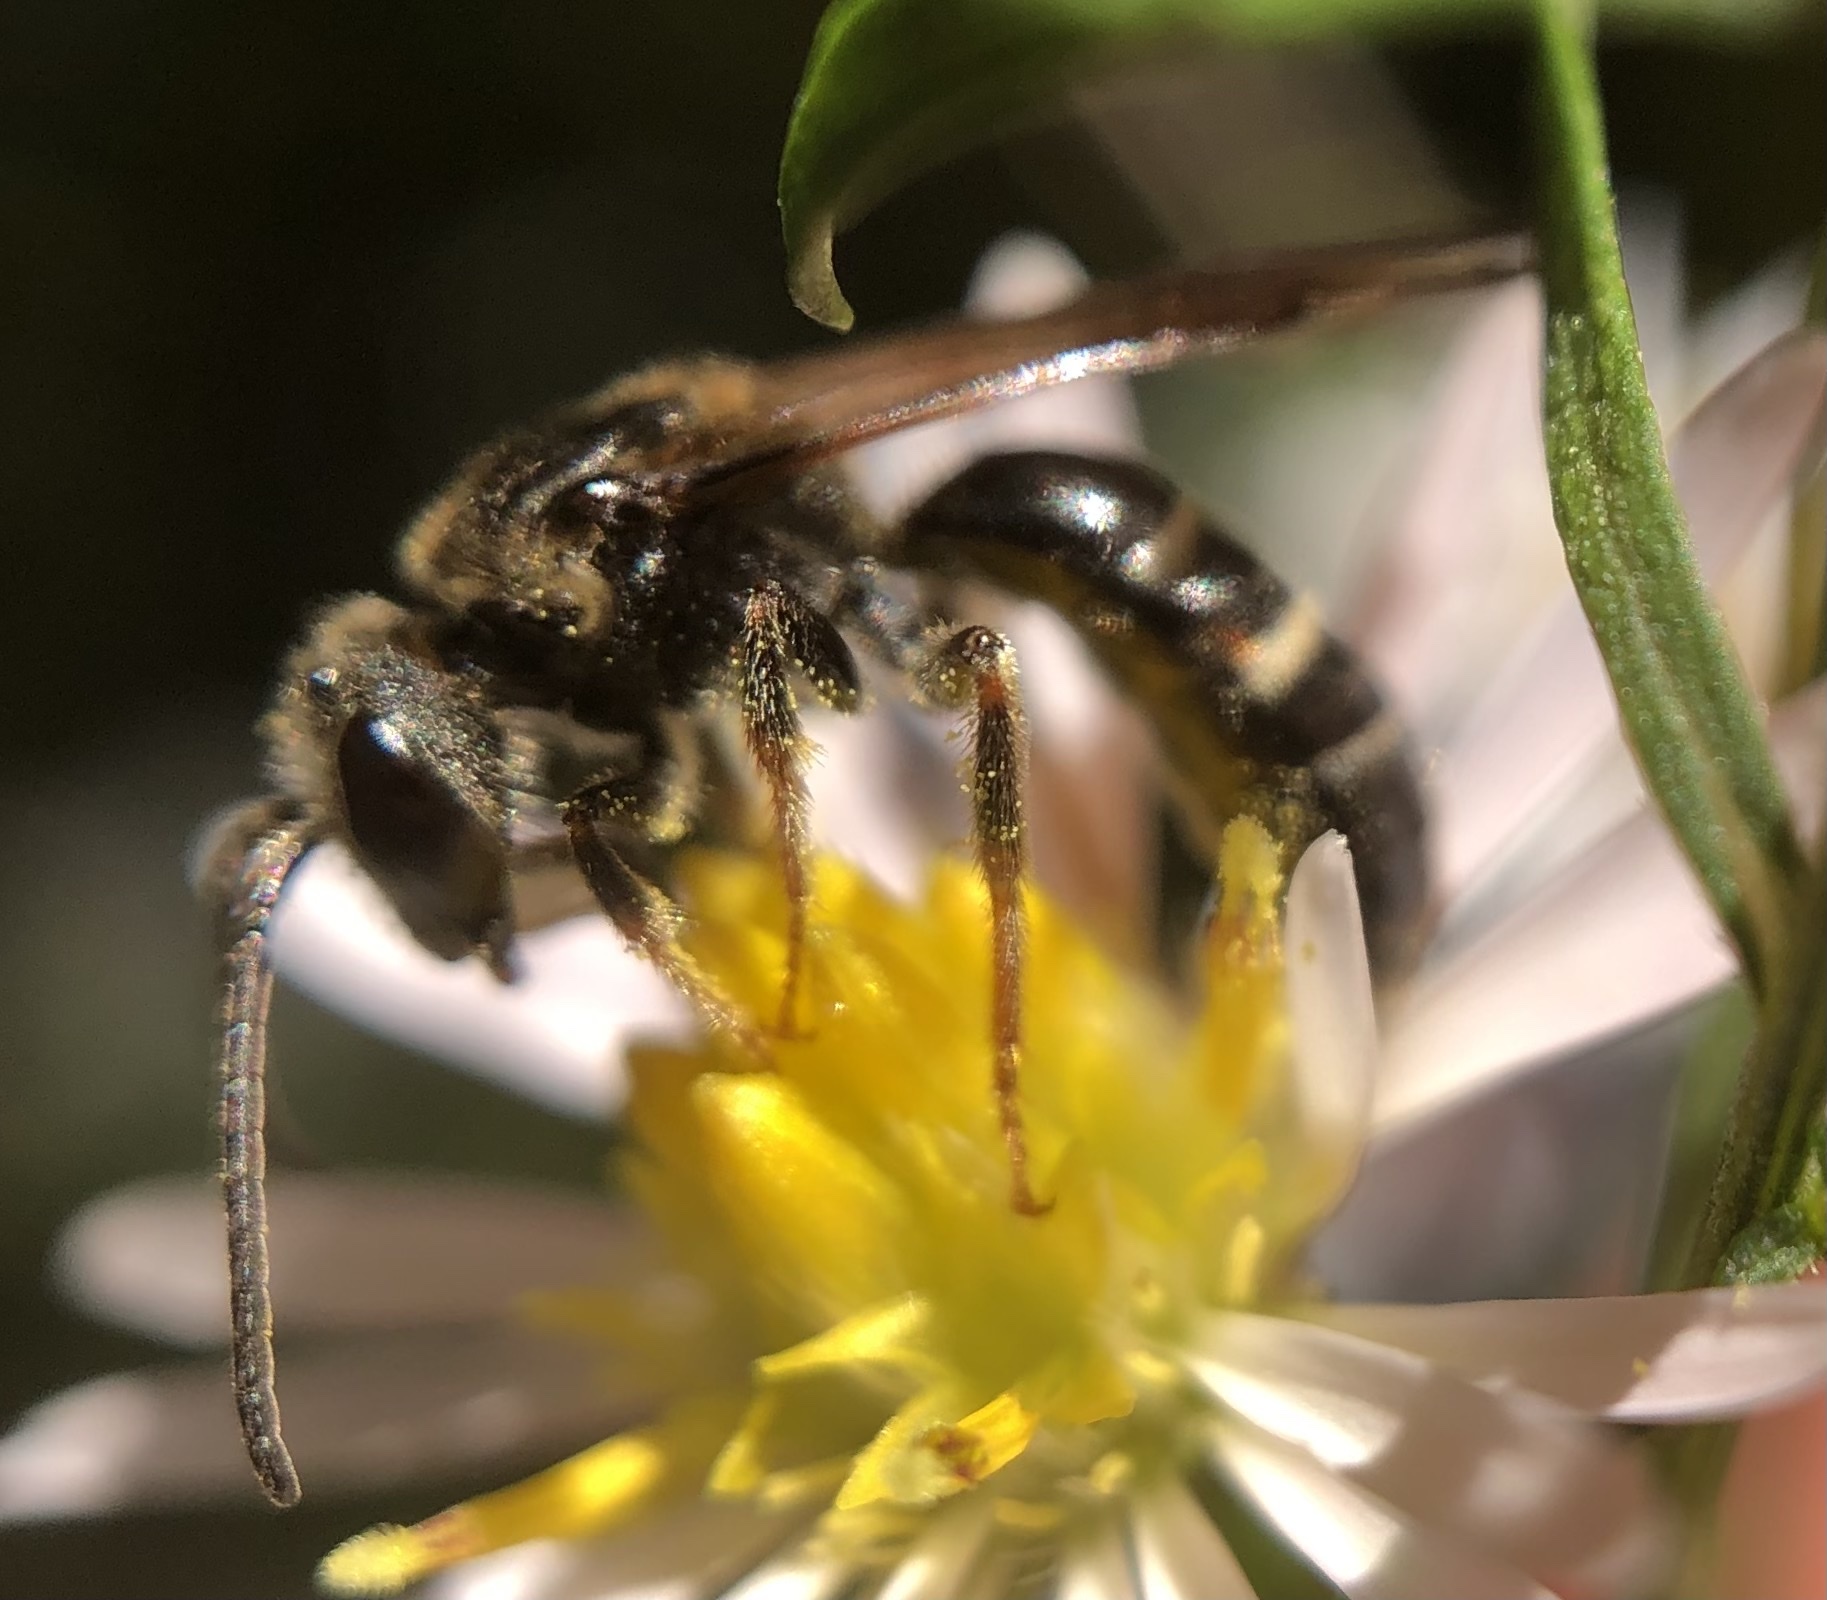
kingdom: Animalia
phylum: Arthropoda
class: Insecta
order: Hymenoptera
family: Halictidae
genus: Lasioglossum
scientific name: Lasioglossum fuscipenne
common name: Brown-winged sweat bee
